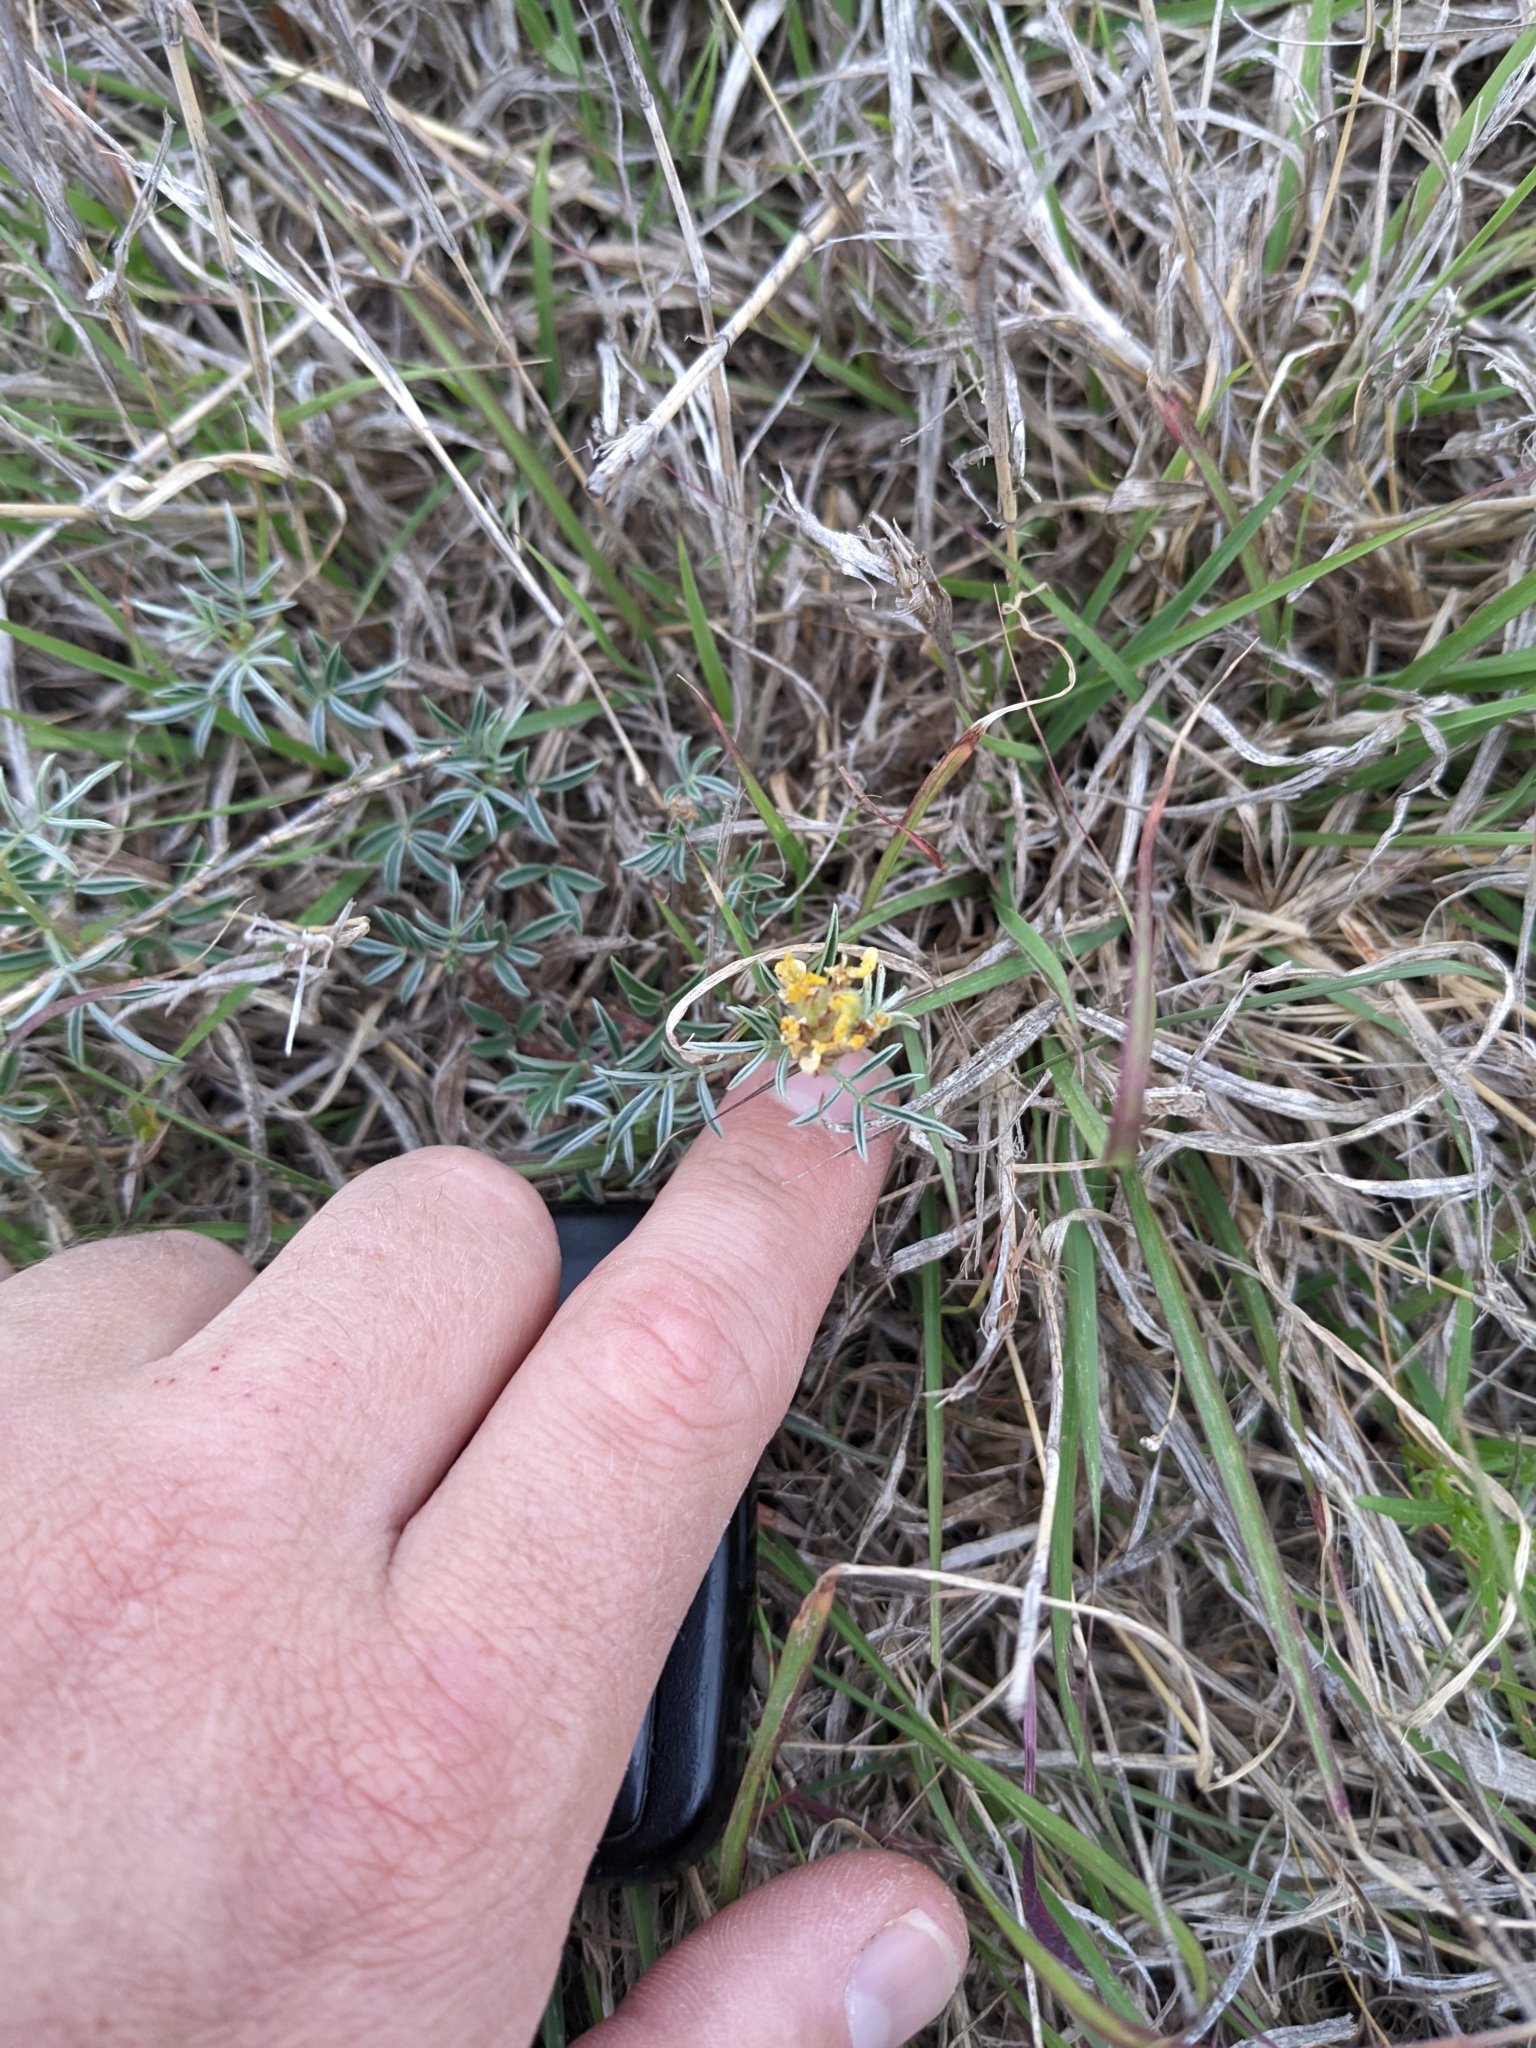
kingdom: Plantae
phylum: Tracheophyta
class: Magnoliopsida
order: Fabales
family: Fabaceae
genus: Dalea
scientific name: Dalea nana
